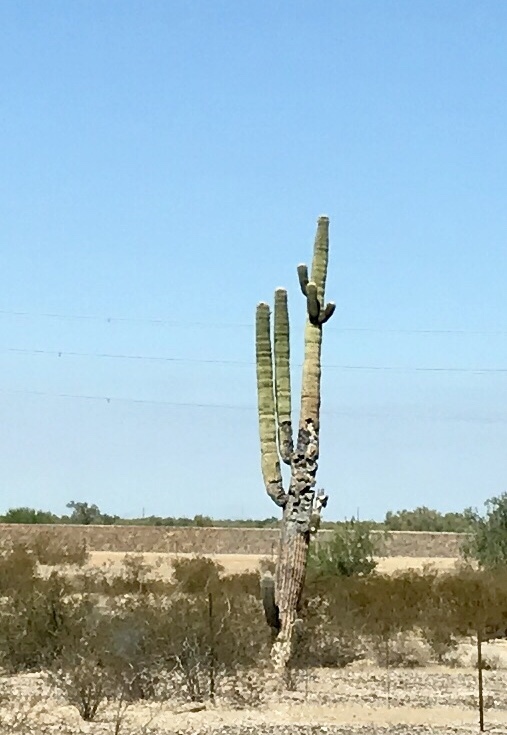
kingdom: Plantae
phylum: Tracheophyta
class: Magnoliopsida
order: Caryophyllales
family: Cactaceae
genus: Carnegiea
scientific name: Carnegiea gigantea
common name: Saguaro
